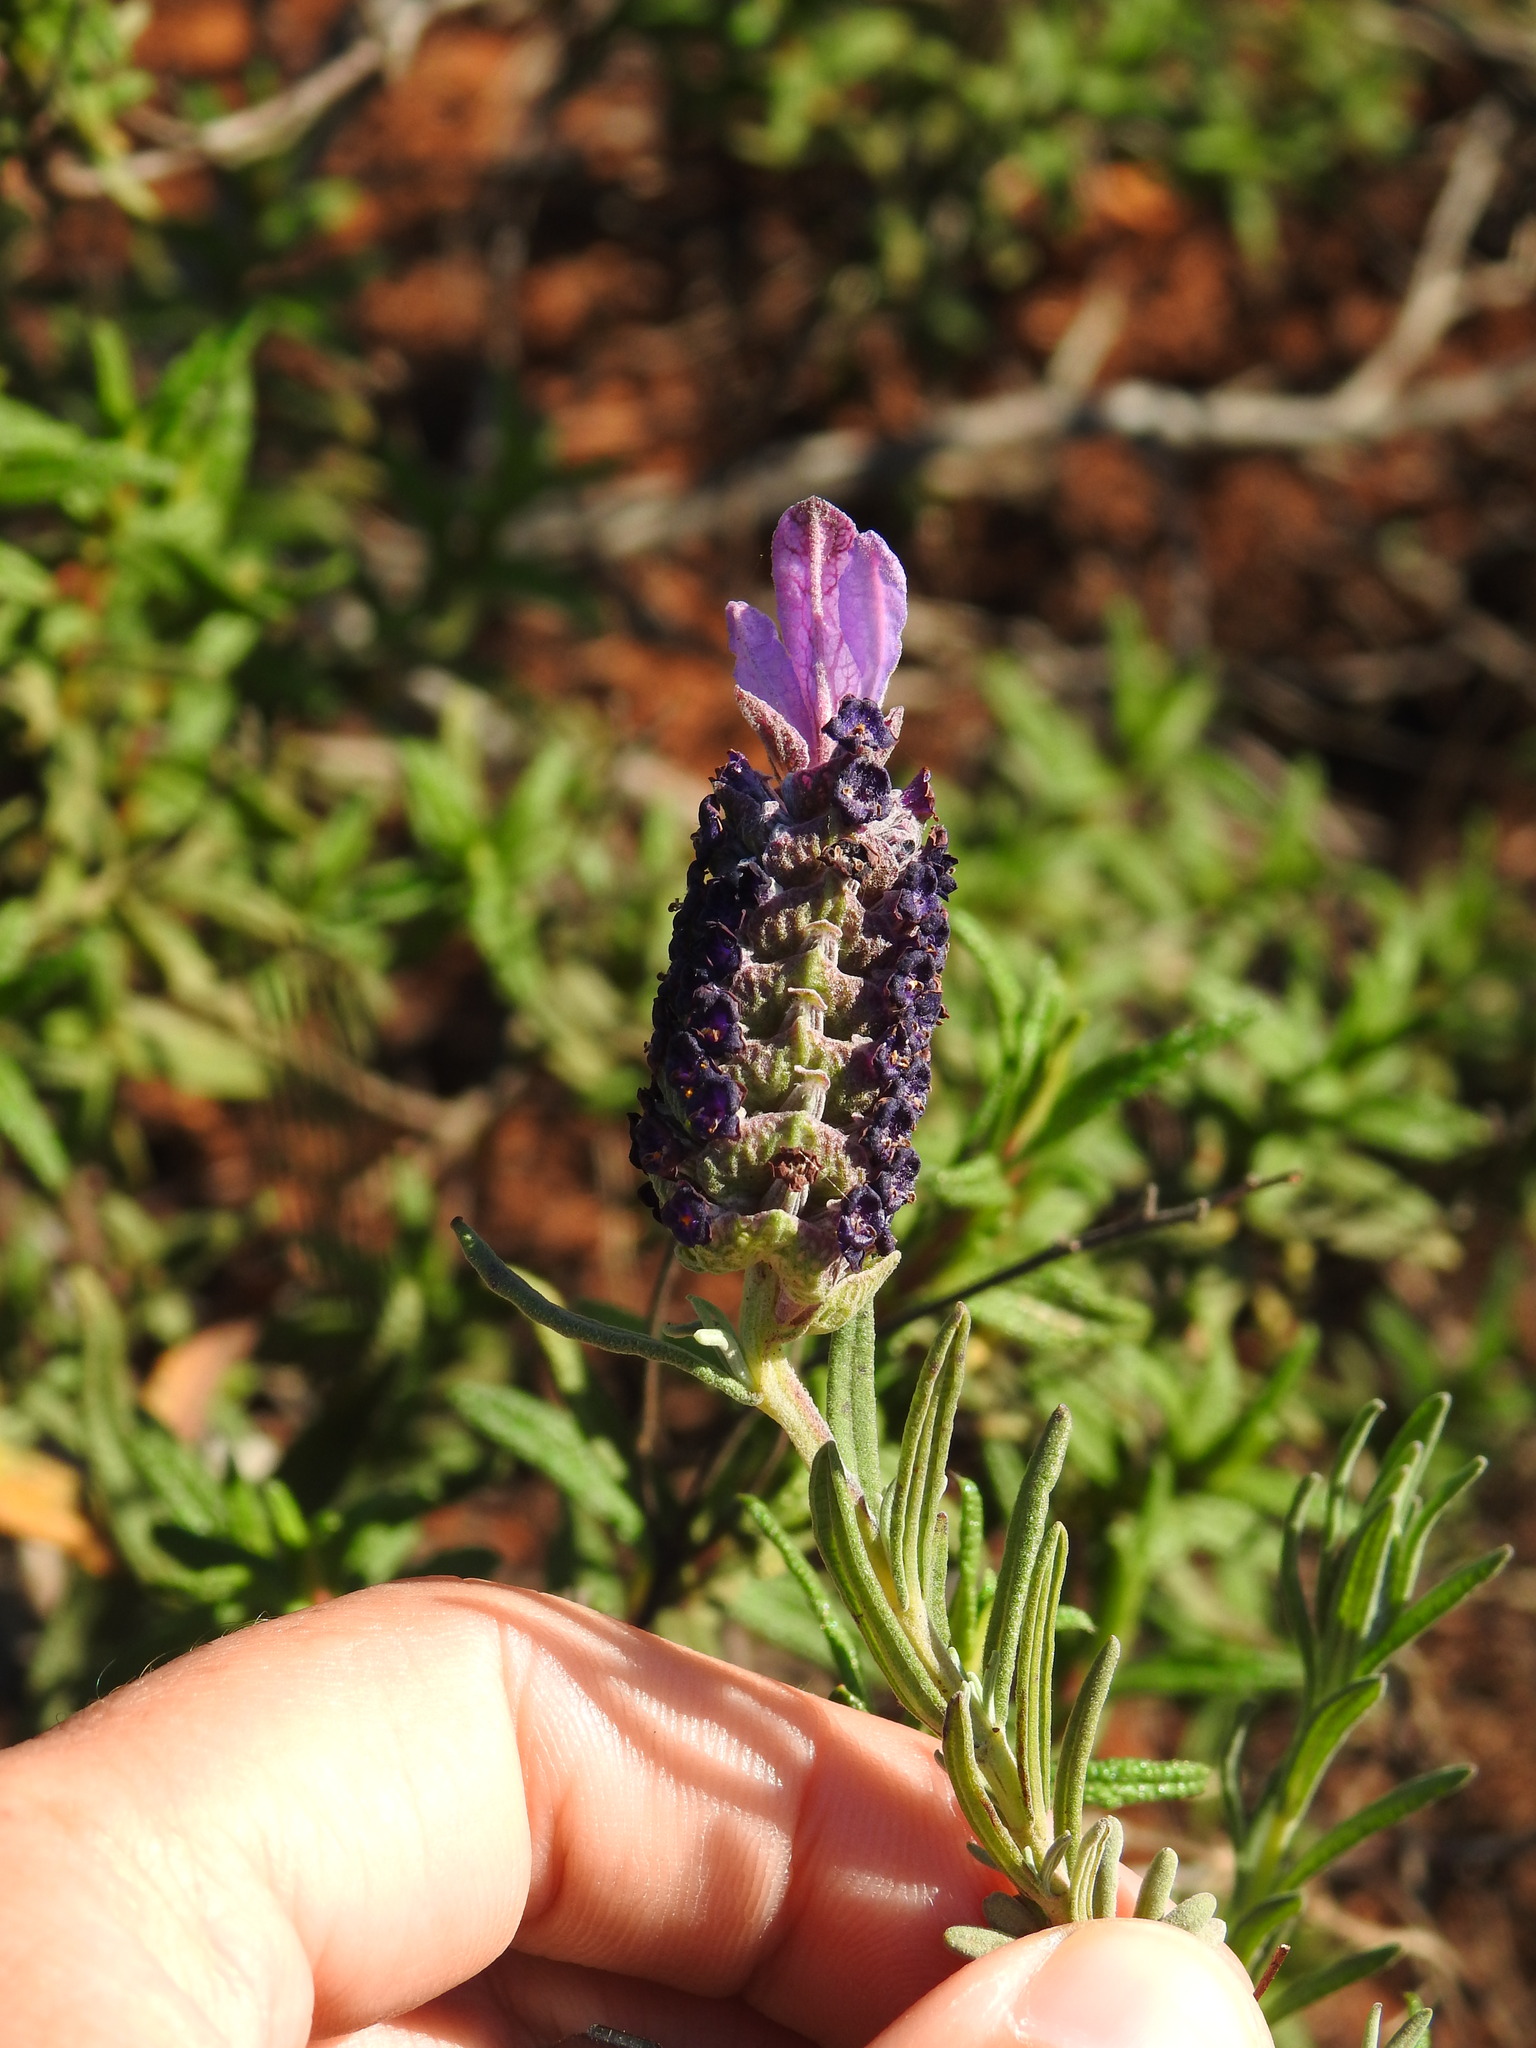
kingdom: Plantae
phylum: Tracheophyta
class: Magnoliopsida
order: Lamiales
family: Lamiaceae
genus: Lavandula
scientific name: Lavandula stoechas
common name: French lavender
